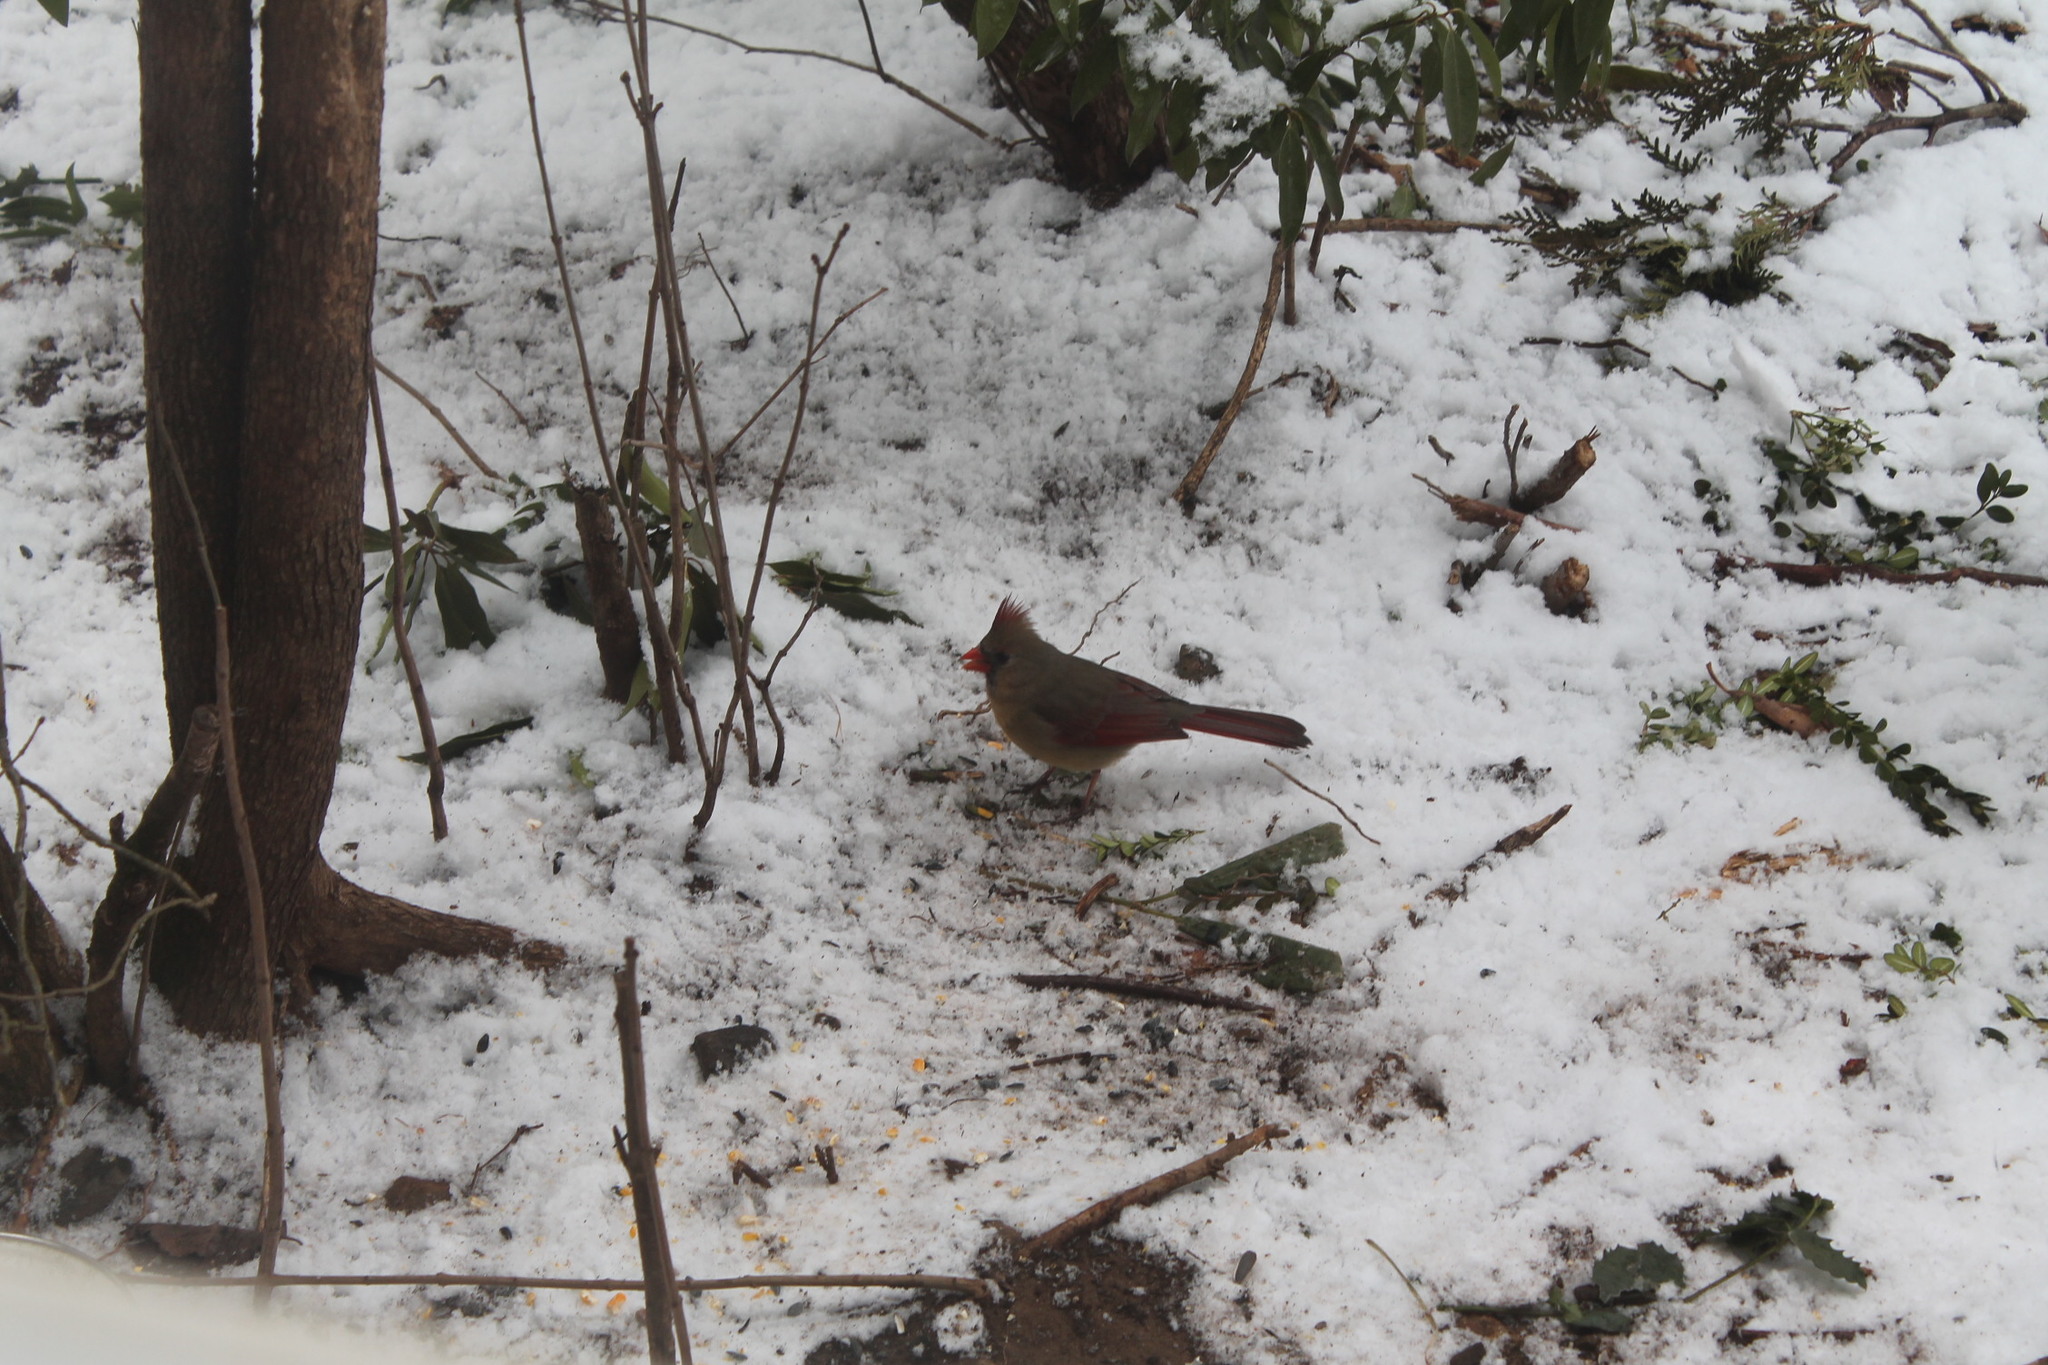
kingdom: Animalia
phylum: Chordata
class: Aves
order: Passeriformes
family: Cardinalidae
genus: Cardinalis
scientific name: Cardinalis cardinalis
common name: Northern cardinal
